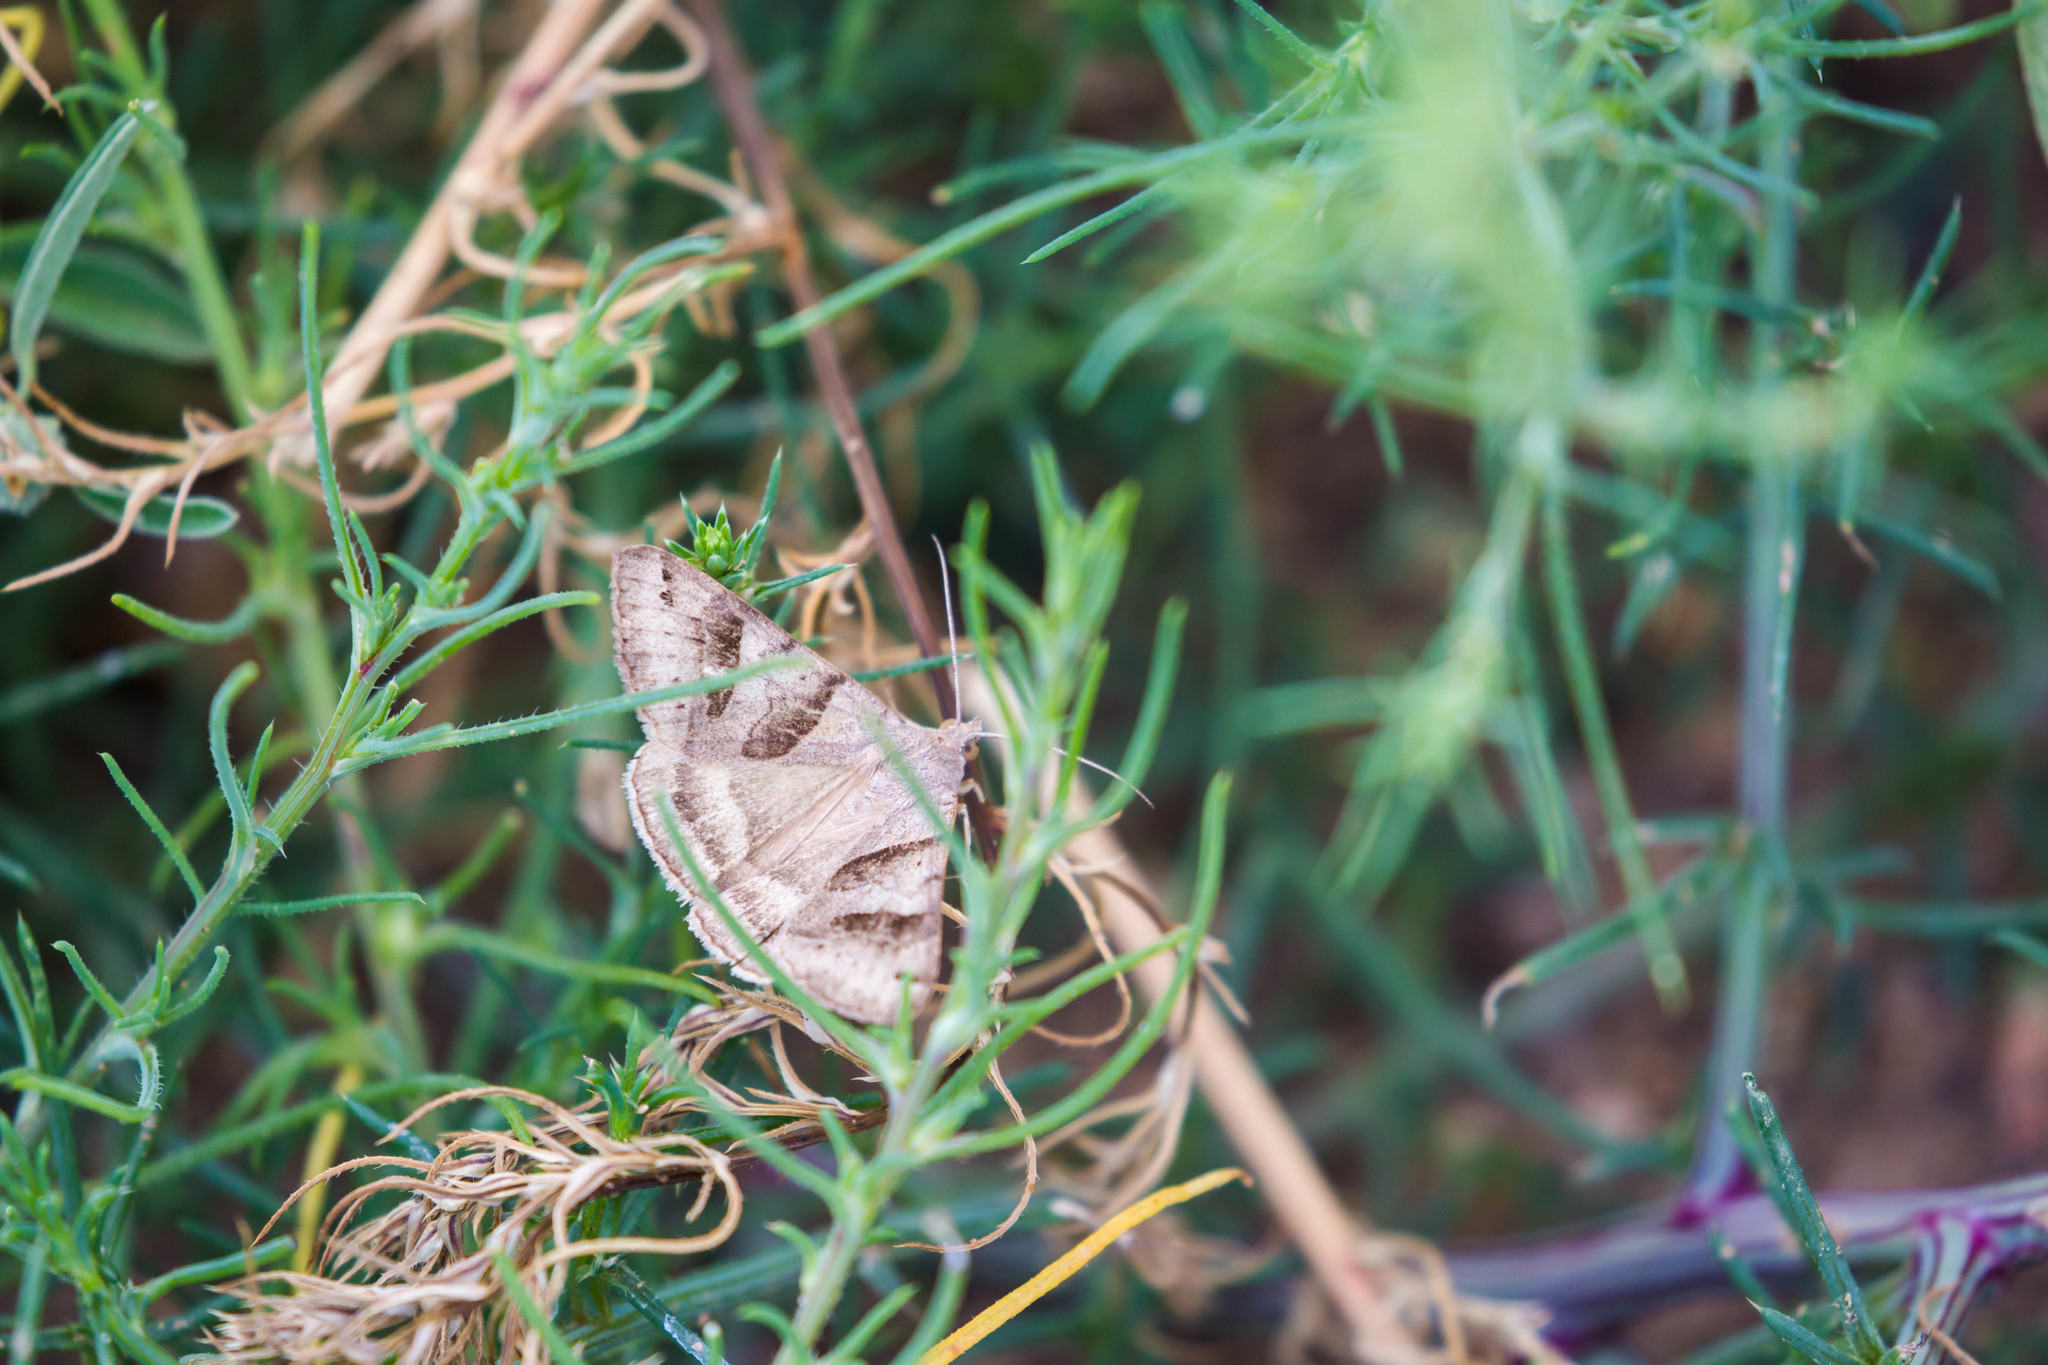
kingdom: Animalia
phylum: Arthropoda
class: Insecta
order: Lepidoptera
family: Erebidae
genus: Caenurgina
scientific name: Caenurgina erechtea
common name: Forage looper moth
